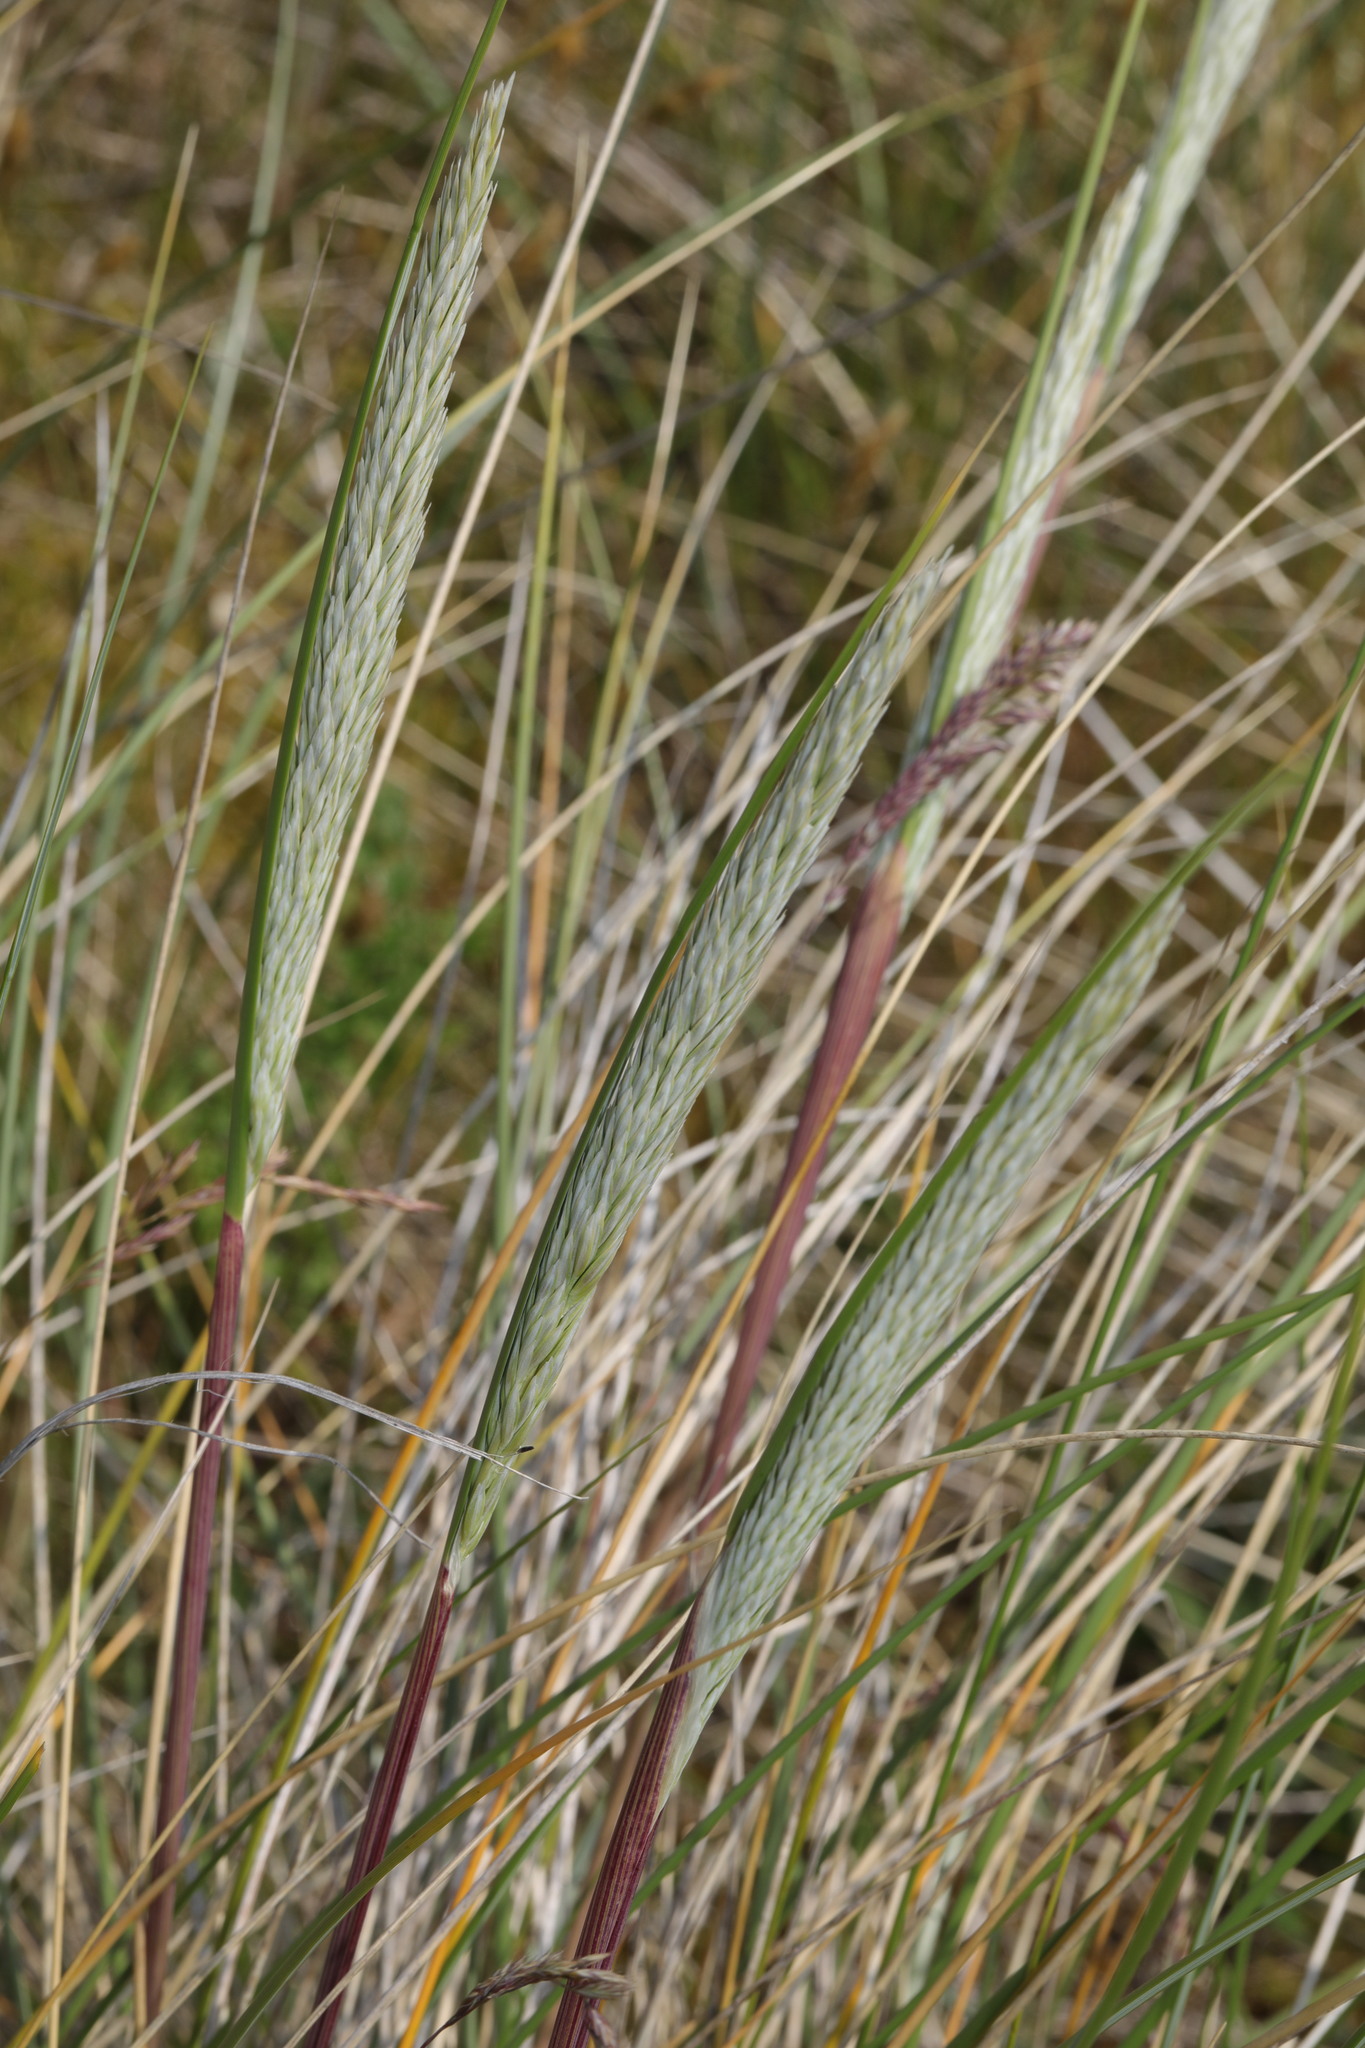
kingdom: Plantae
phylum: Tracheophyta
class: Liliopsida
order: Poales
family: Poaceae
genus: Calamagrostis
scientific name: Calamagrostis arenaria
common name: European beachgrass
